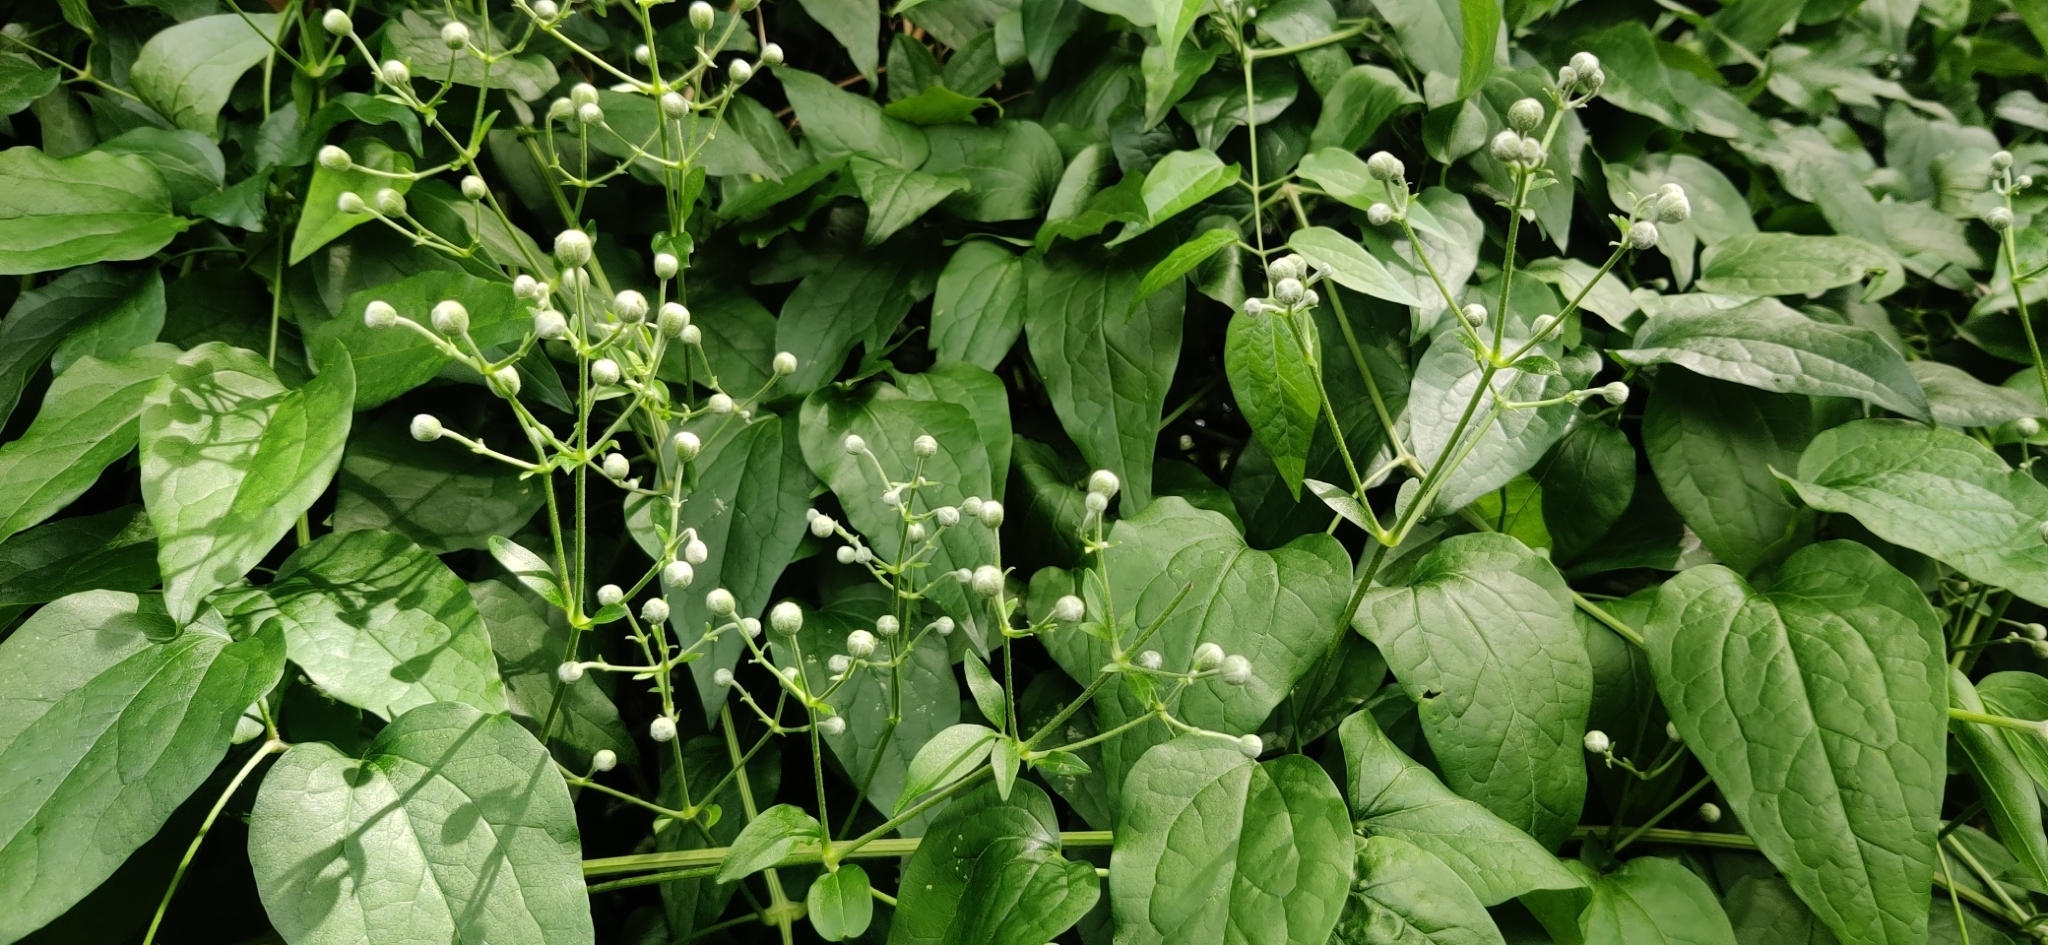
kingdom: Plantae
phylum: Tracheophyta
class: Magnoliopsida
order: Ranunculales
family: Ranunculaceae
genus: Clematis
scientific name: Clematis vitalba
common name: Evergreen clematis
